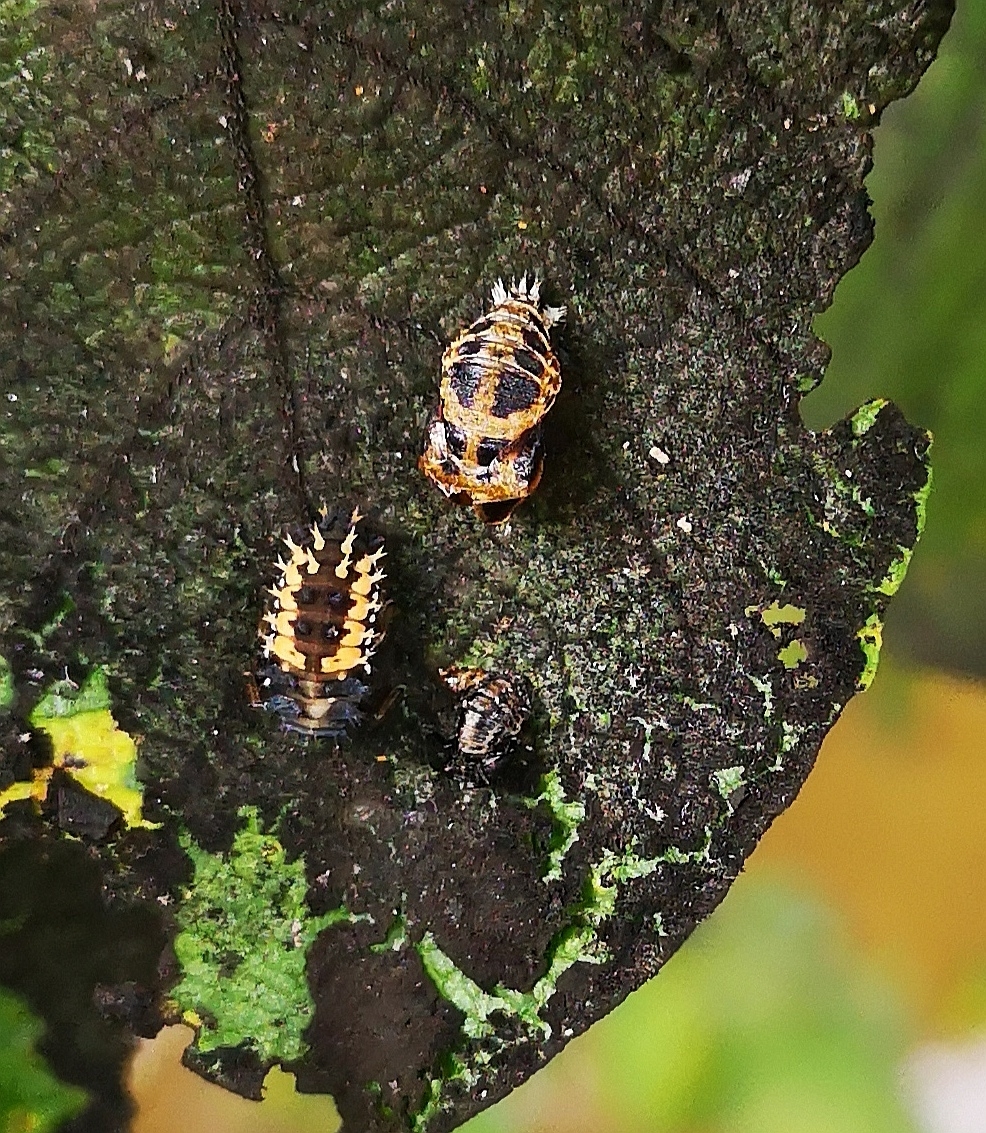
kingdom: Animalia
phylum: Arthropoda
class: Insecta
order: Coleoptera
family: Coccinellidae
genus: Harmonia
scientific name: Harmonia axyridis
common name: Harlequin ladybird
